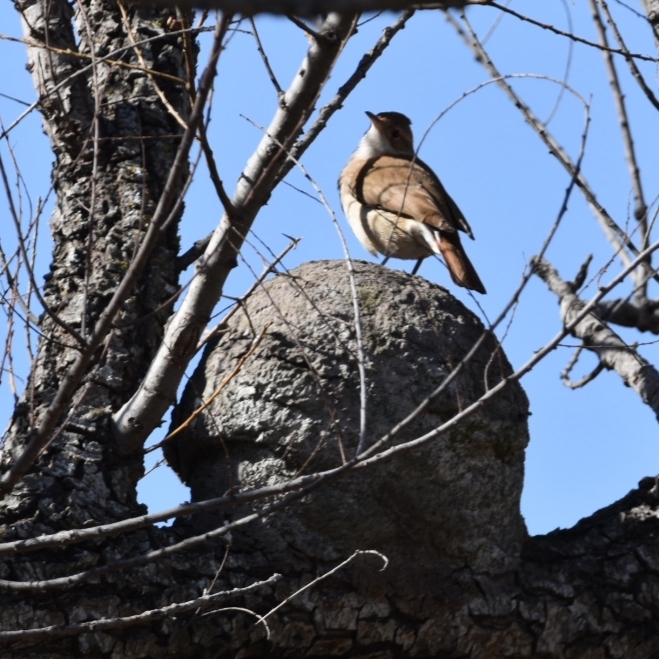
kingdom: Animalia
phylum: Chordata
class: Aves
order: Passeriformes
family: Furnariidae
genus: Furnarius
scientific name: Furnarius rufus
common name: Rufous hornero
